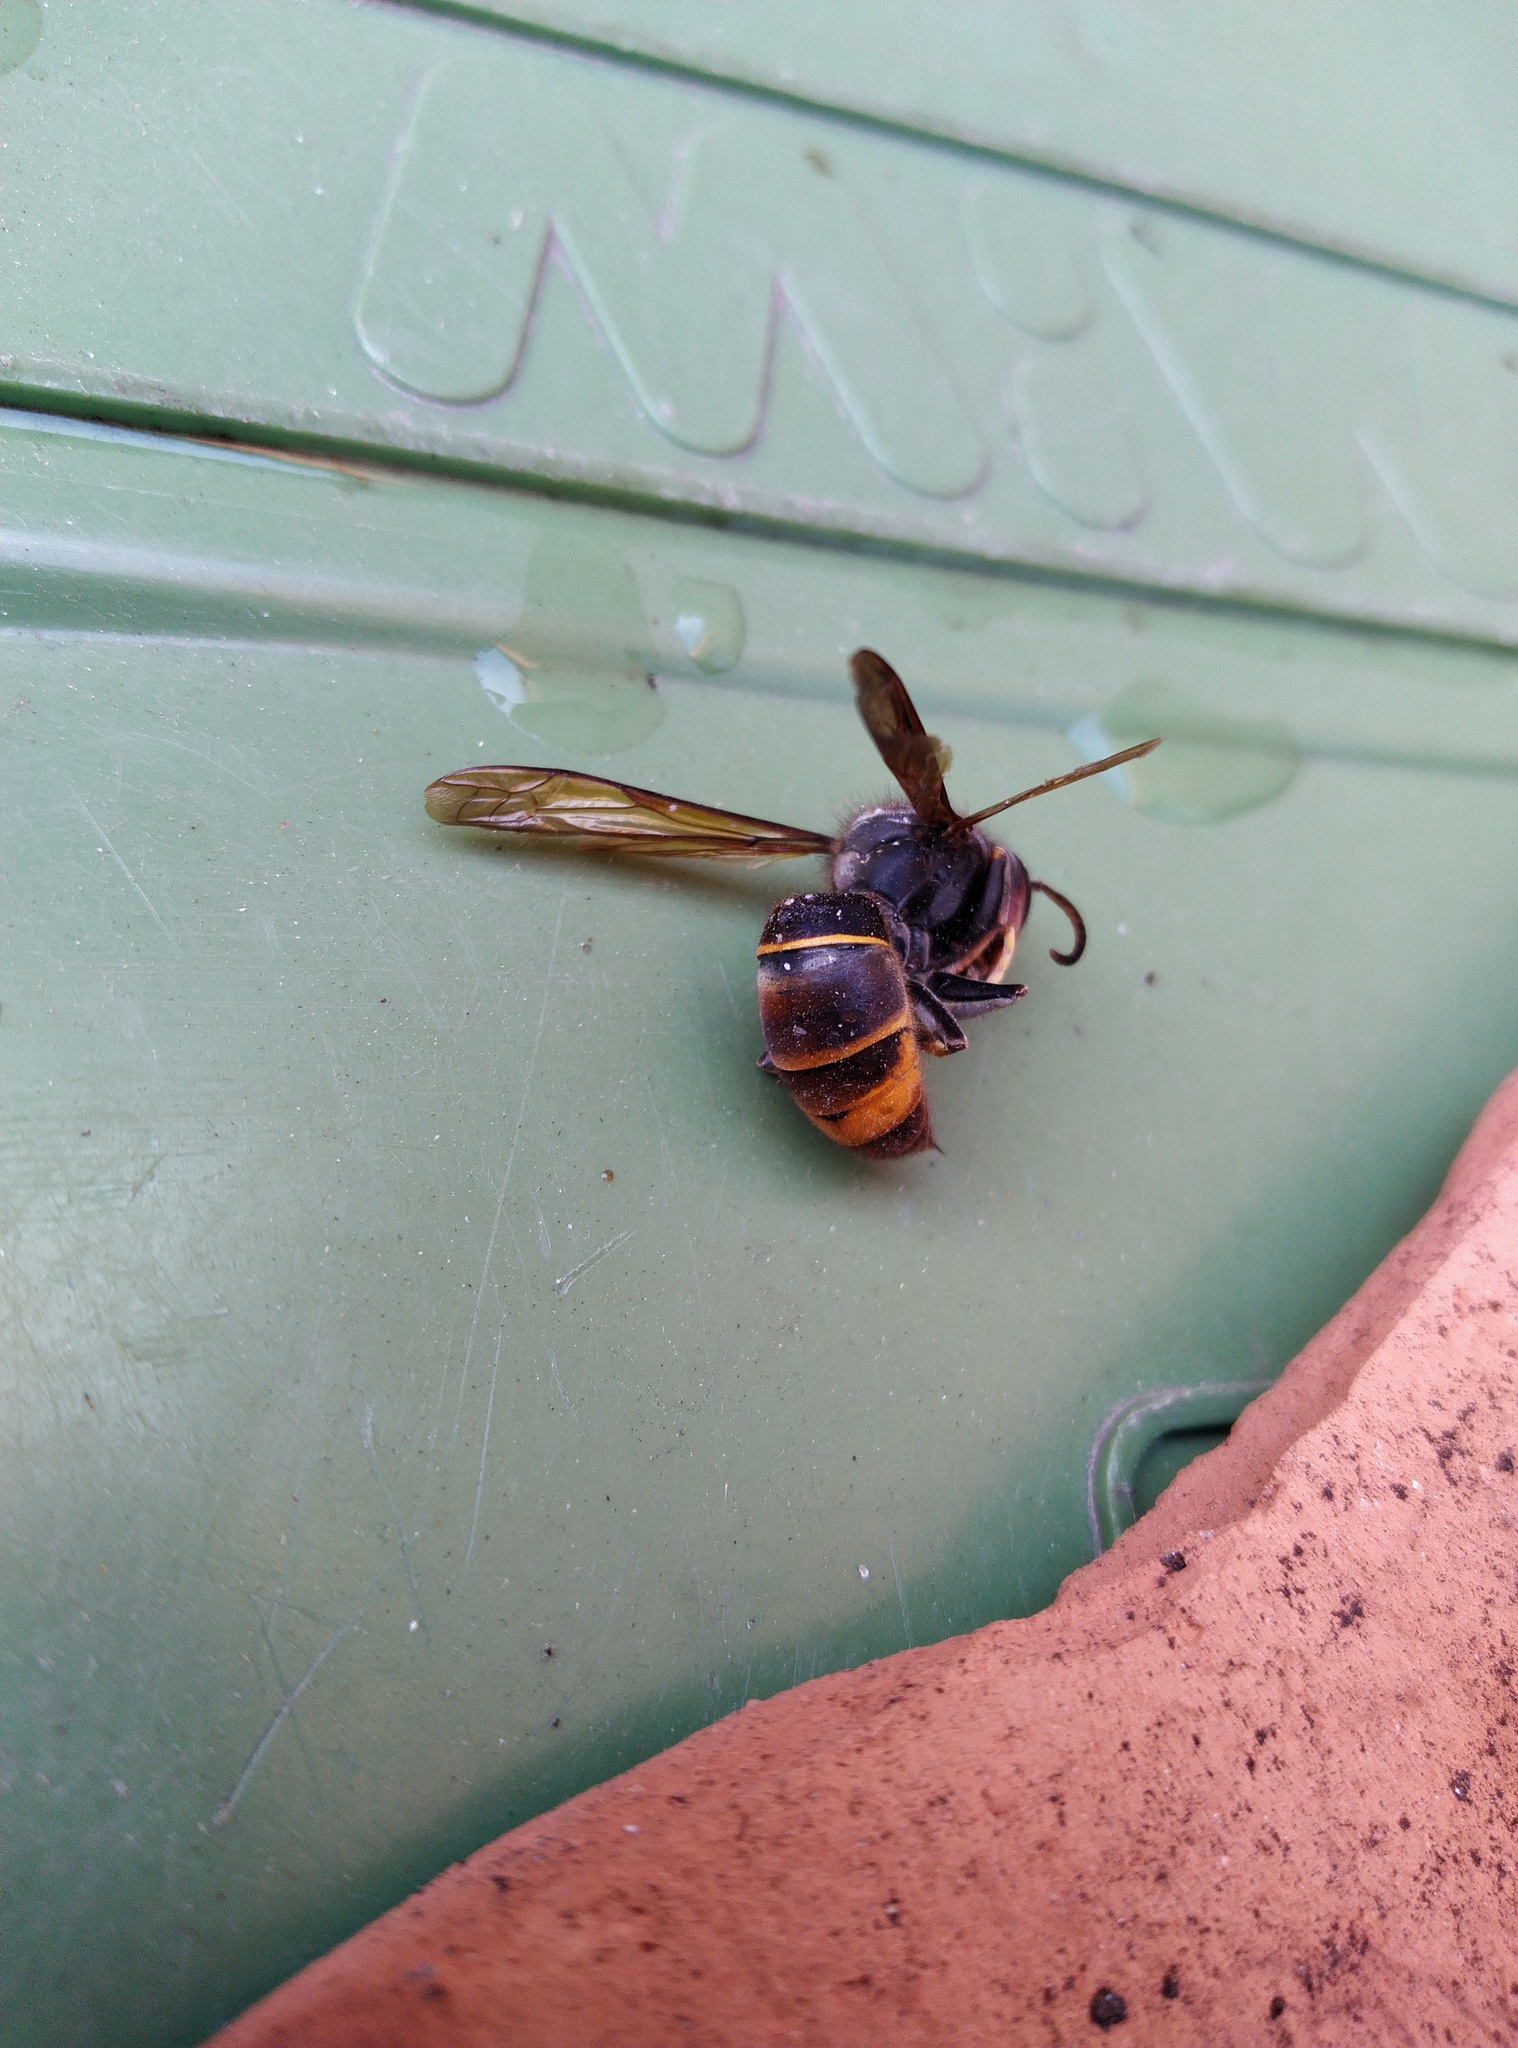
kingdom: Animalia
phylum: Arthropoda
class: Insecta
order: Hymenoptera
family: Vespidae
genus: Vespa
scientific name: Vespa velutina
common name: Asian hornet
